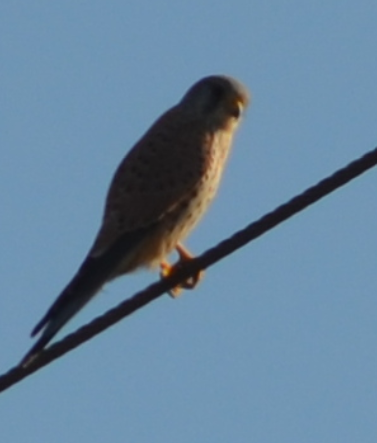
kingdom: Animalia
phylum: Chordata
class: Aves
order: Falconiformes
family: Falconidae
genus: Falco
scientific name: Falco tinnunculus
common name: Common kestrel
